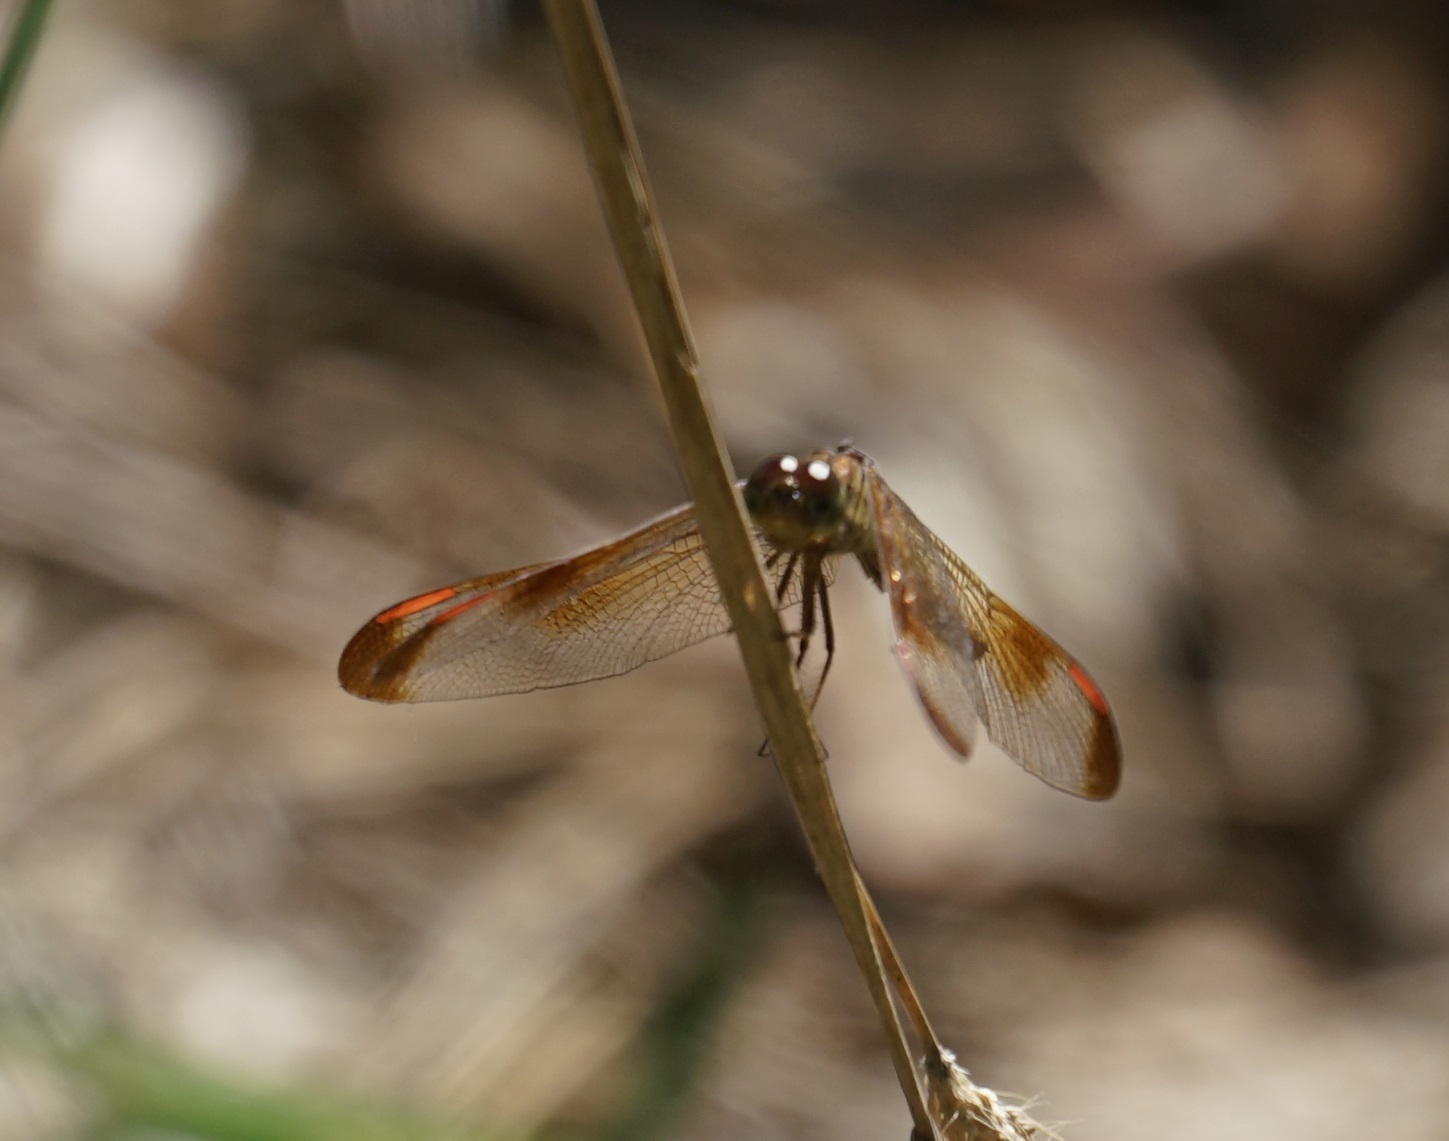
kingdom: Animalia
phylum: Arthropoda
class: Insecta
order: Odonata
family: Libellulidae
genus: Neurothemis
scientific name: Neurothemis stigmatizans
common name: Painted grasshawk
